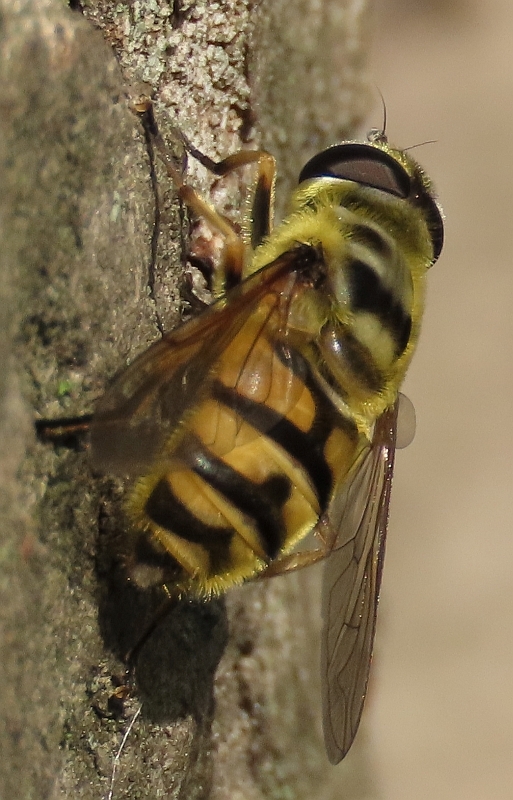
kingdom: Animalia
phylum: Arthropoda
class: Insecta
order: Diptera
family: Syrphidae
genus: Myathropa
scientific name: Myathropa florea
